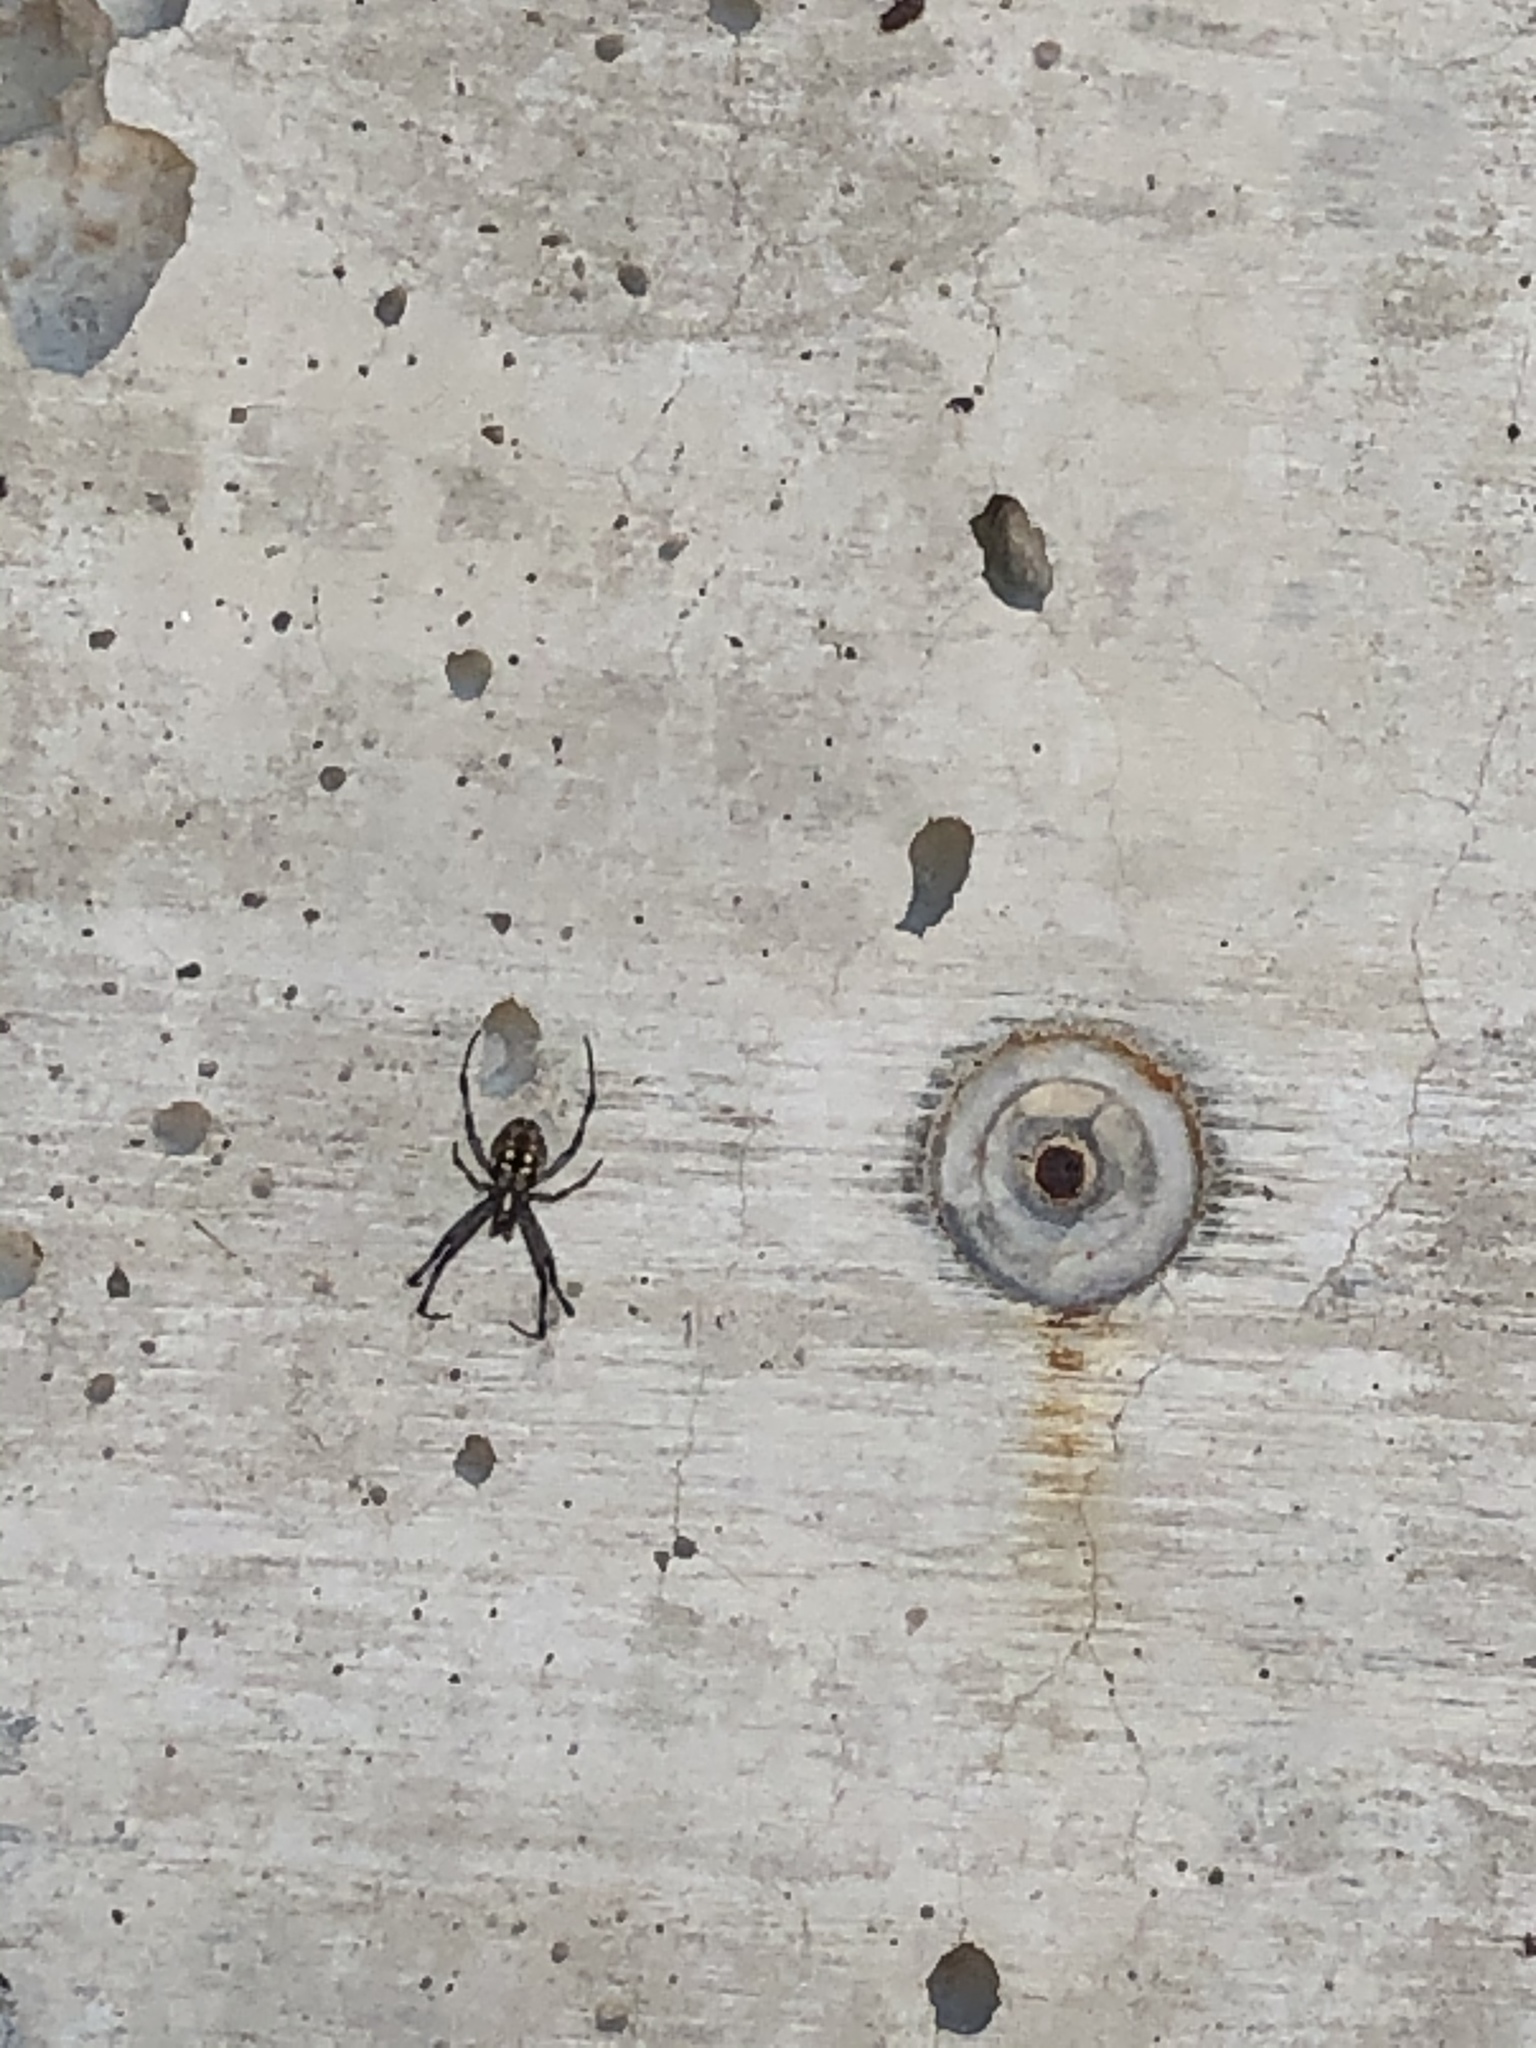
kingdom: Animalia
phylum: Arthropoda
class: Arachnida
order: Araneae
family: Araneidae
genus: Neoscona
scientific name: Neoscona oaxacensis
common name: Orb weavers
